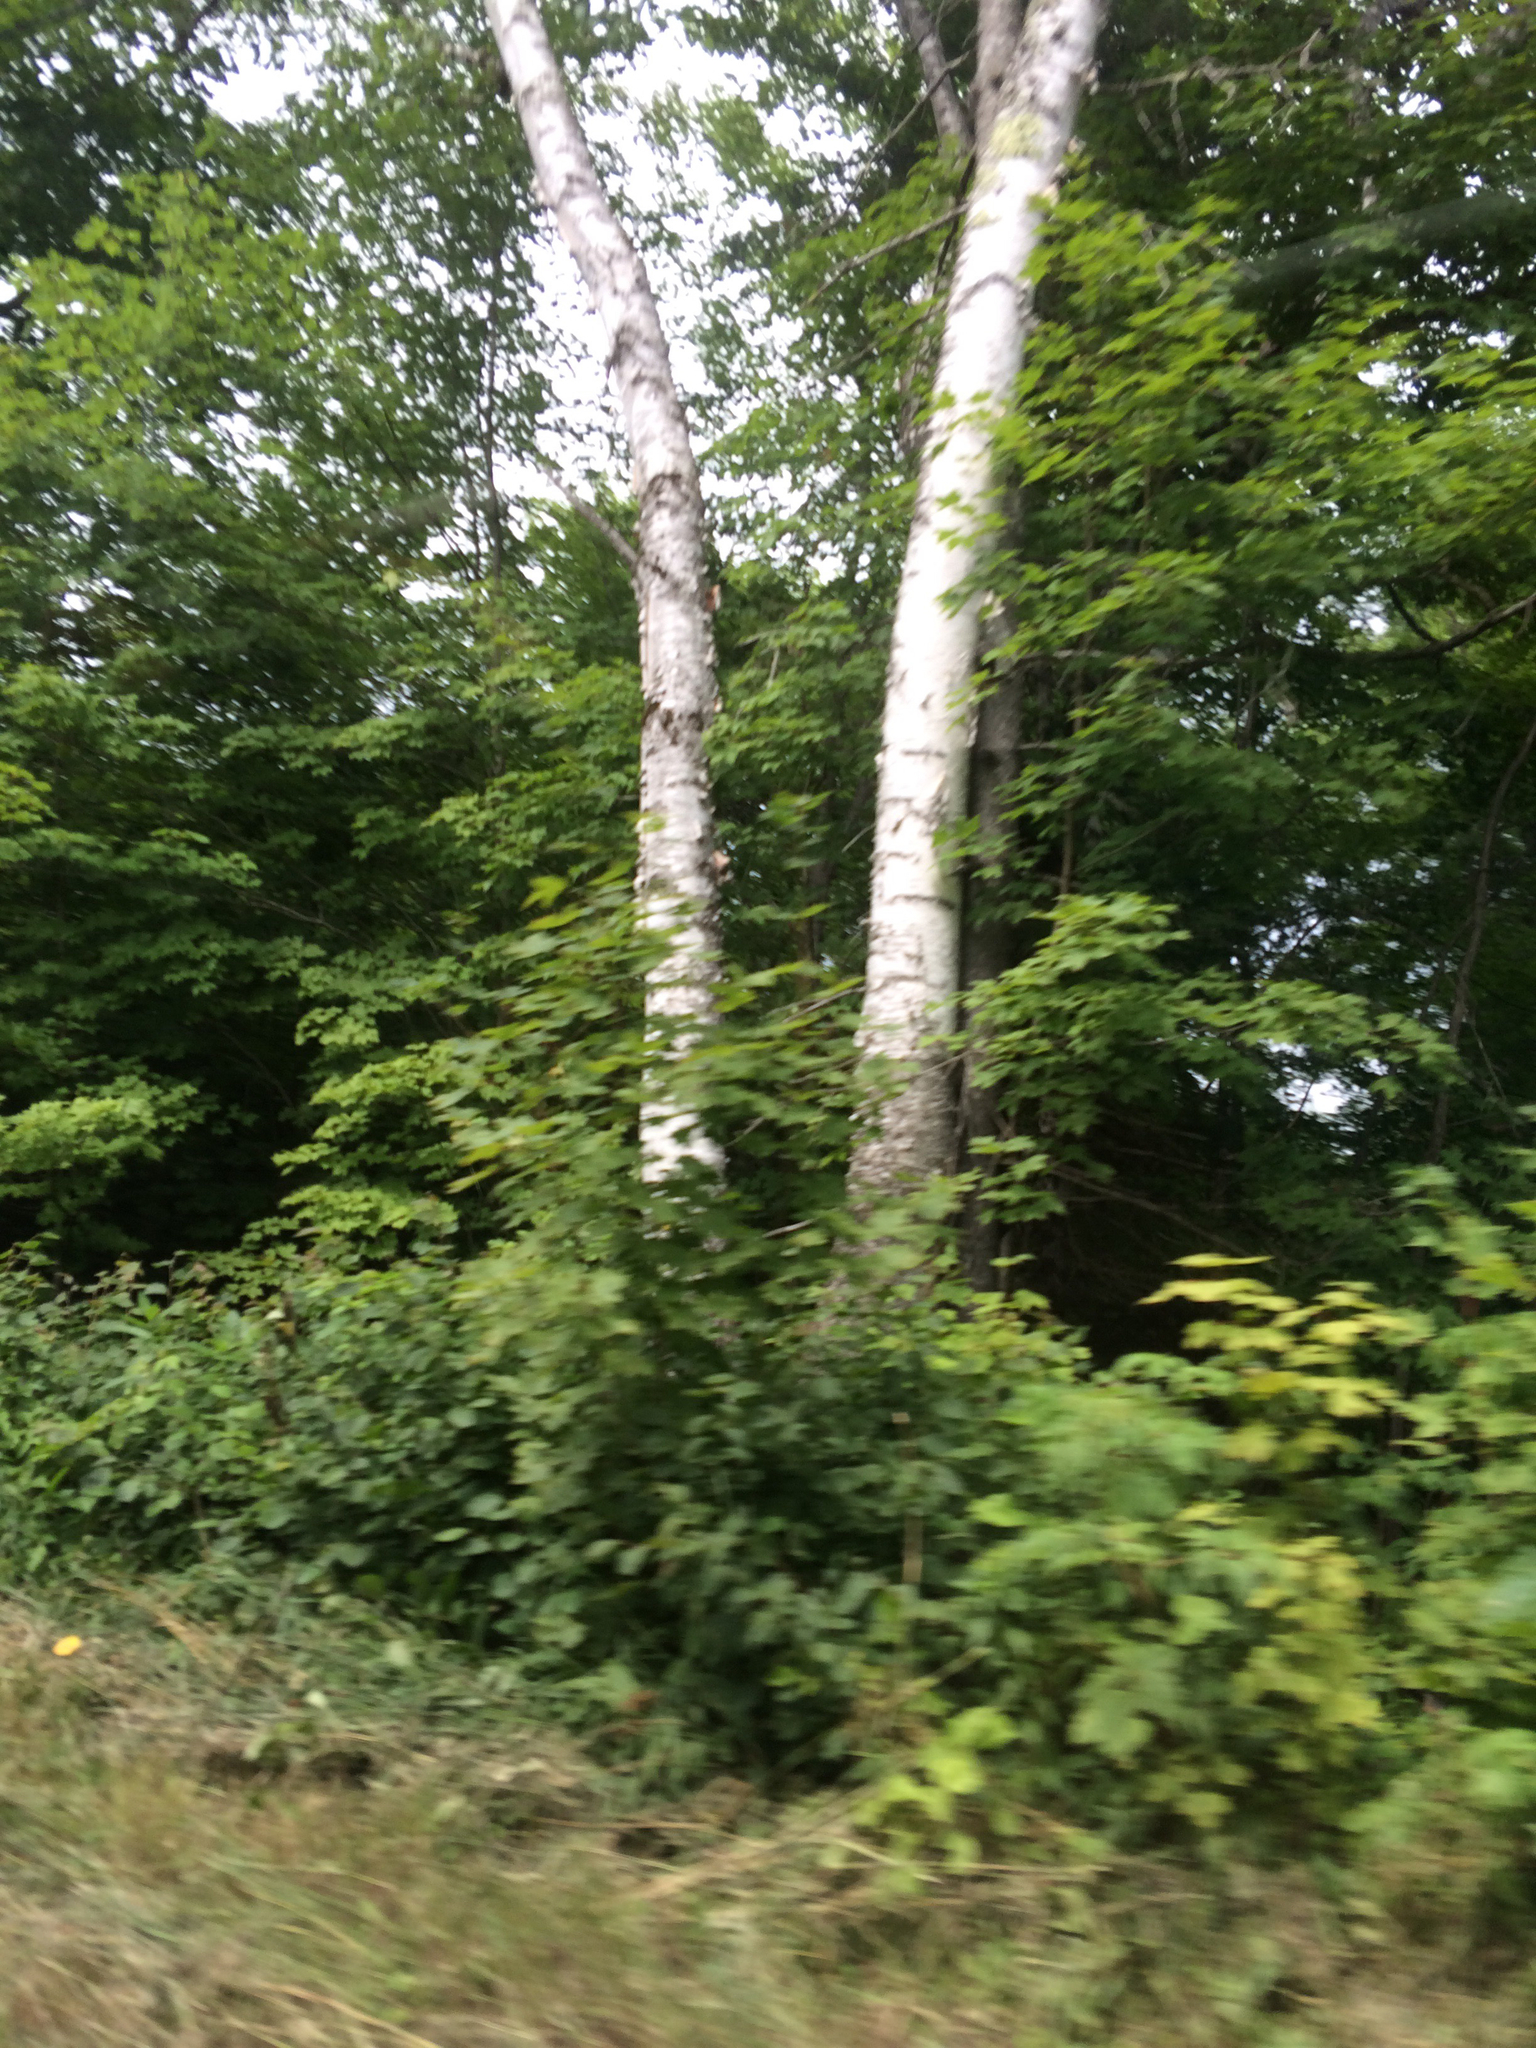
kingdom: Plantae
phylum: Tracheophyta
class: Magnoliopsida
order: Fagales
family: Betulaceae
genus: Betula
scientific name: Betula papyrifera
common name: Paper birch
